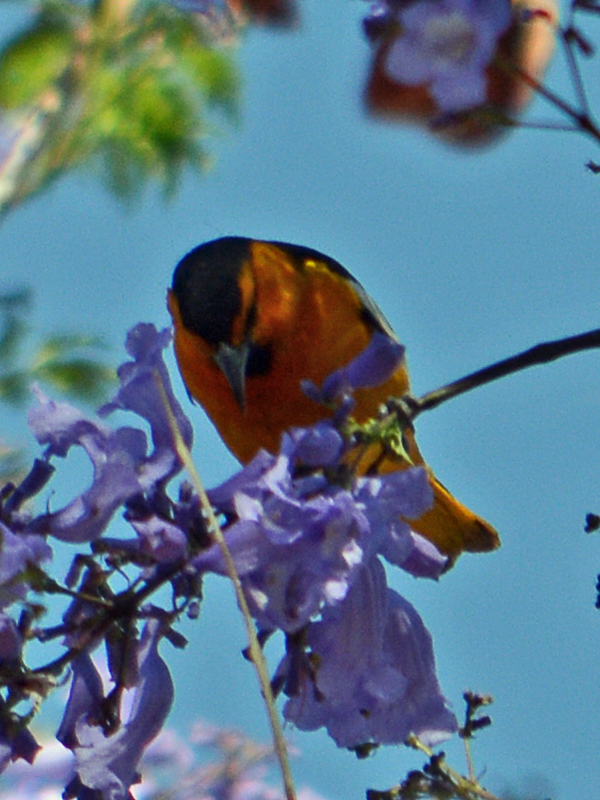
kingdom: Animalia
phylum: Chordata
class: Aves
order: Passeriformes
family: Icteridae
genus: Icterus
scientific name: Icterus bullockii
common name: Bullock's oriole
